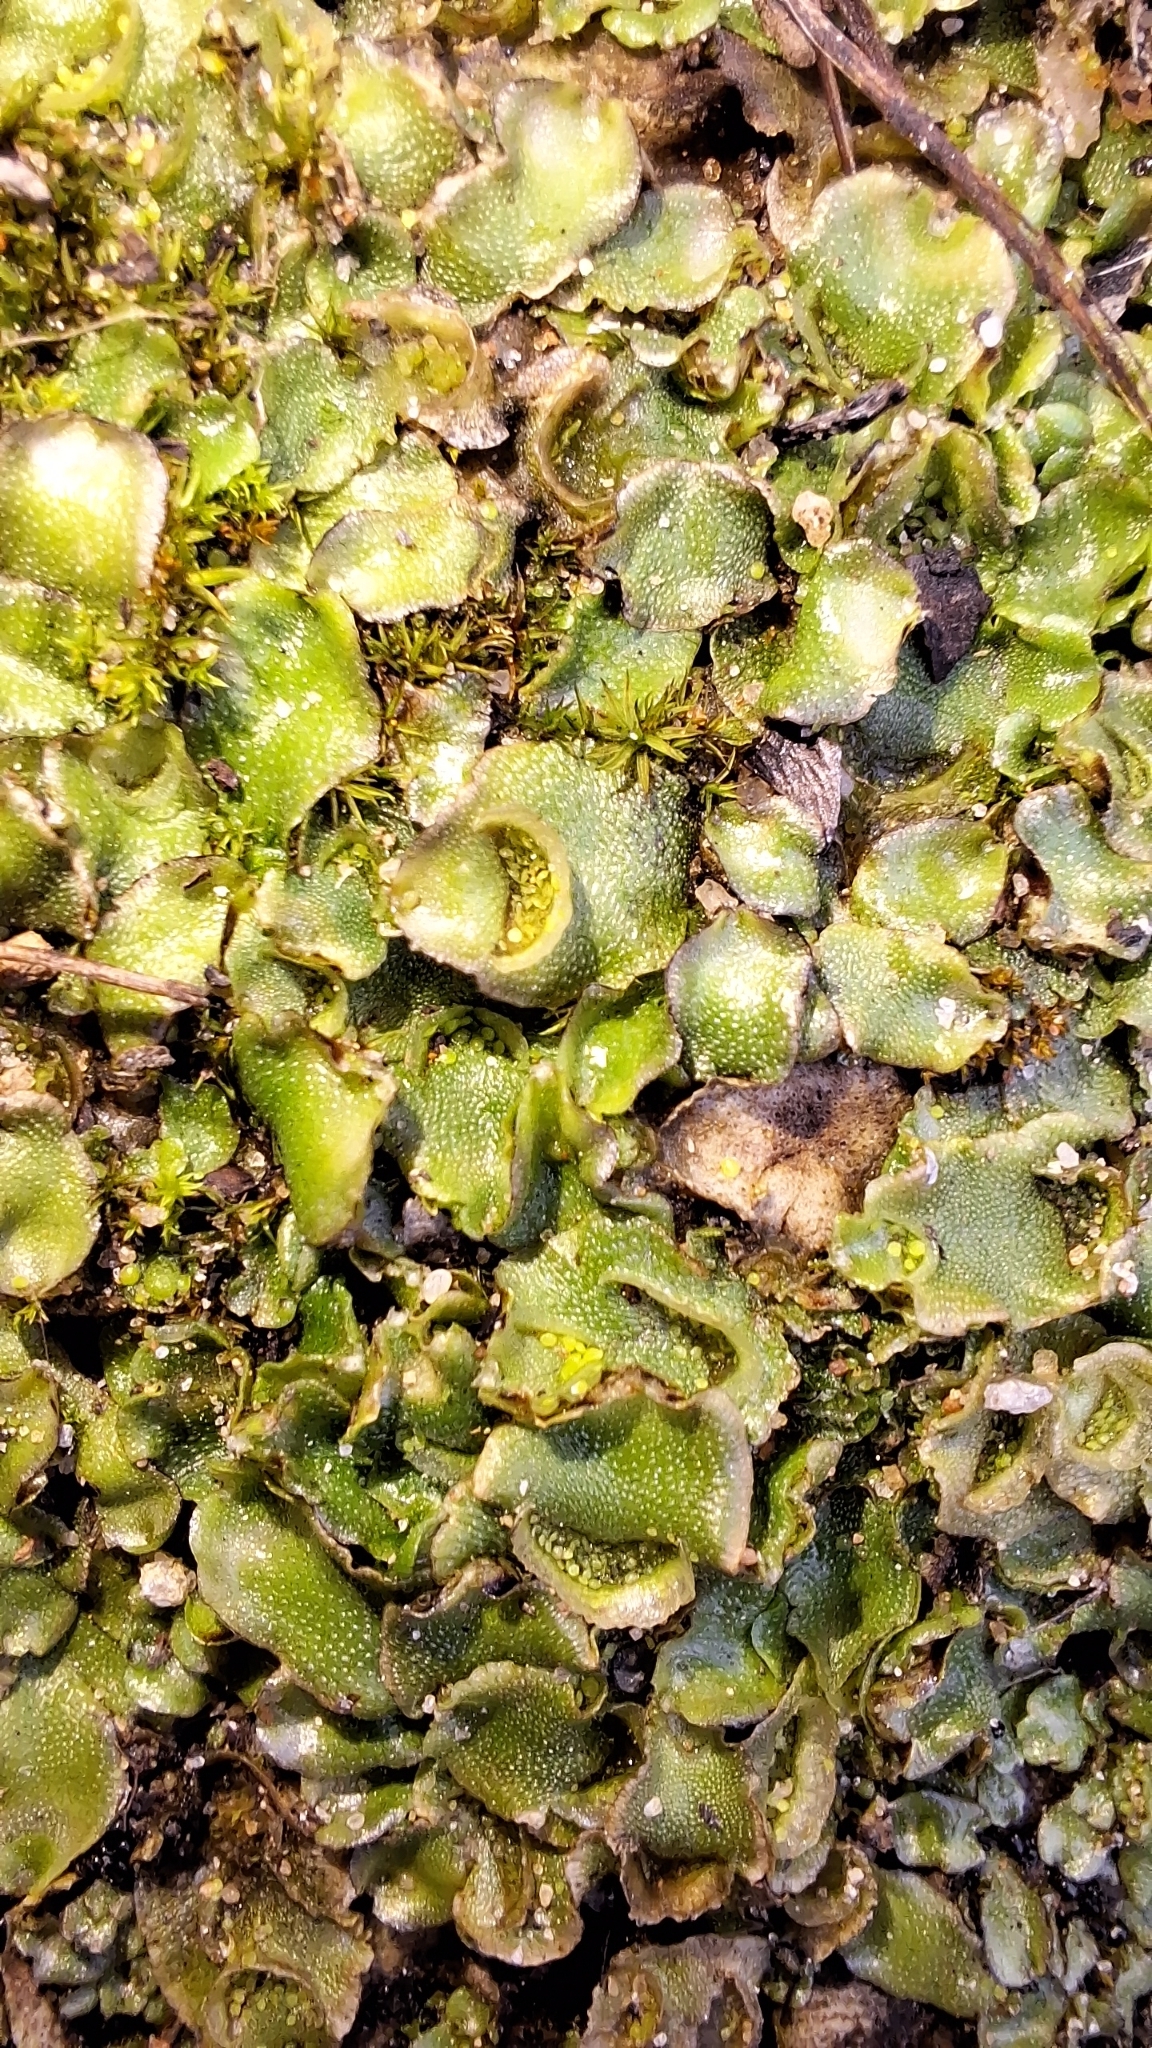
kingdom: Plantae
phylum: Marchantiophyta
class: Marchantiopsida
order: Lunulariales
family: Lunulariaceae
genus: Lunularia
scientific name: Lunularia cruciata
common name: Crescent-cup liverwort
